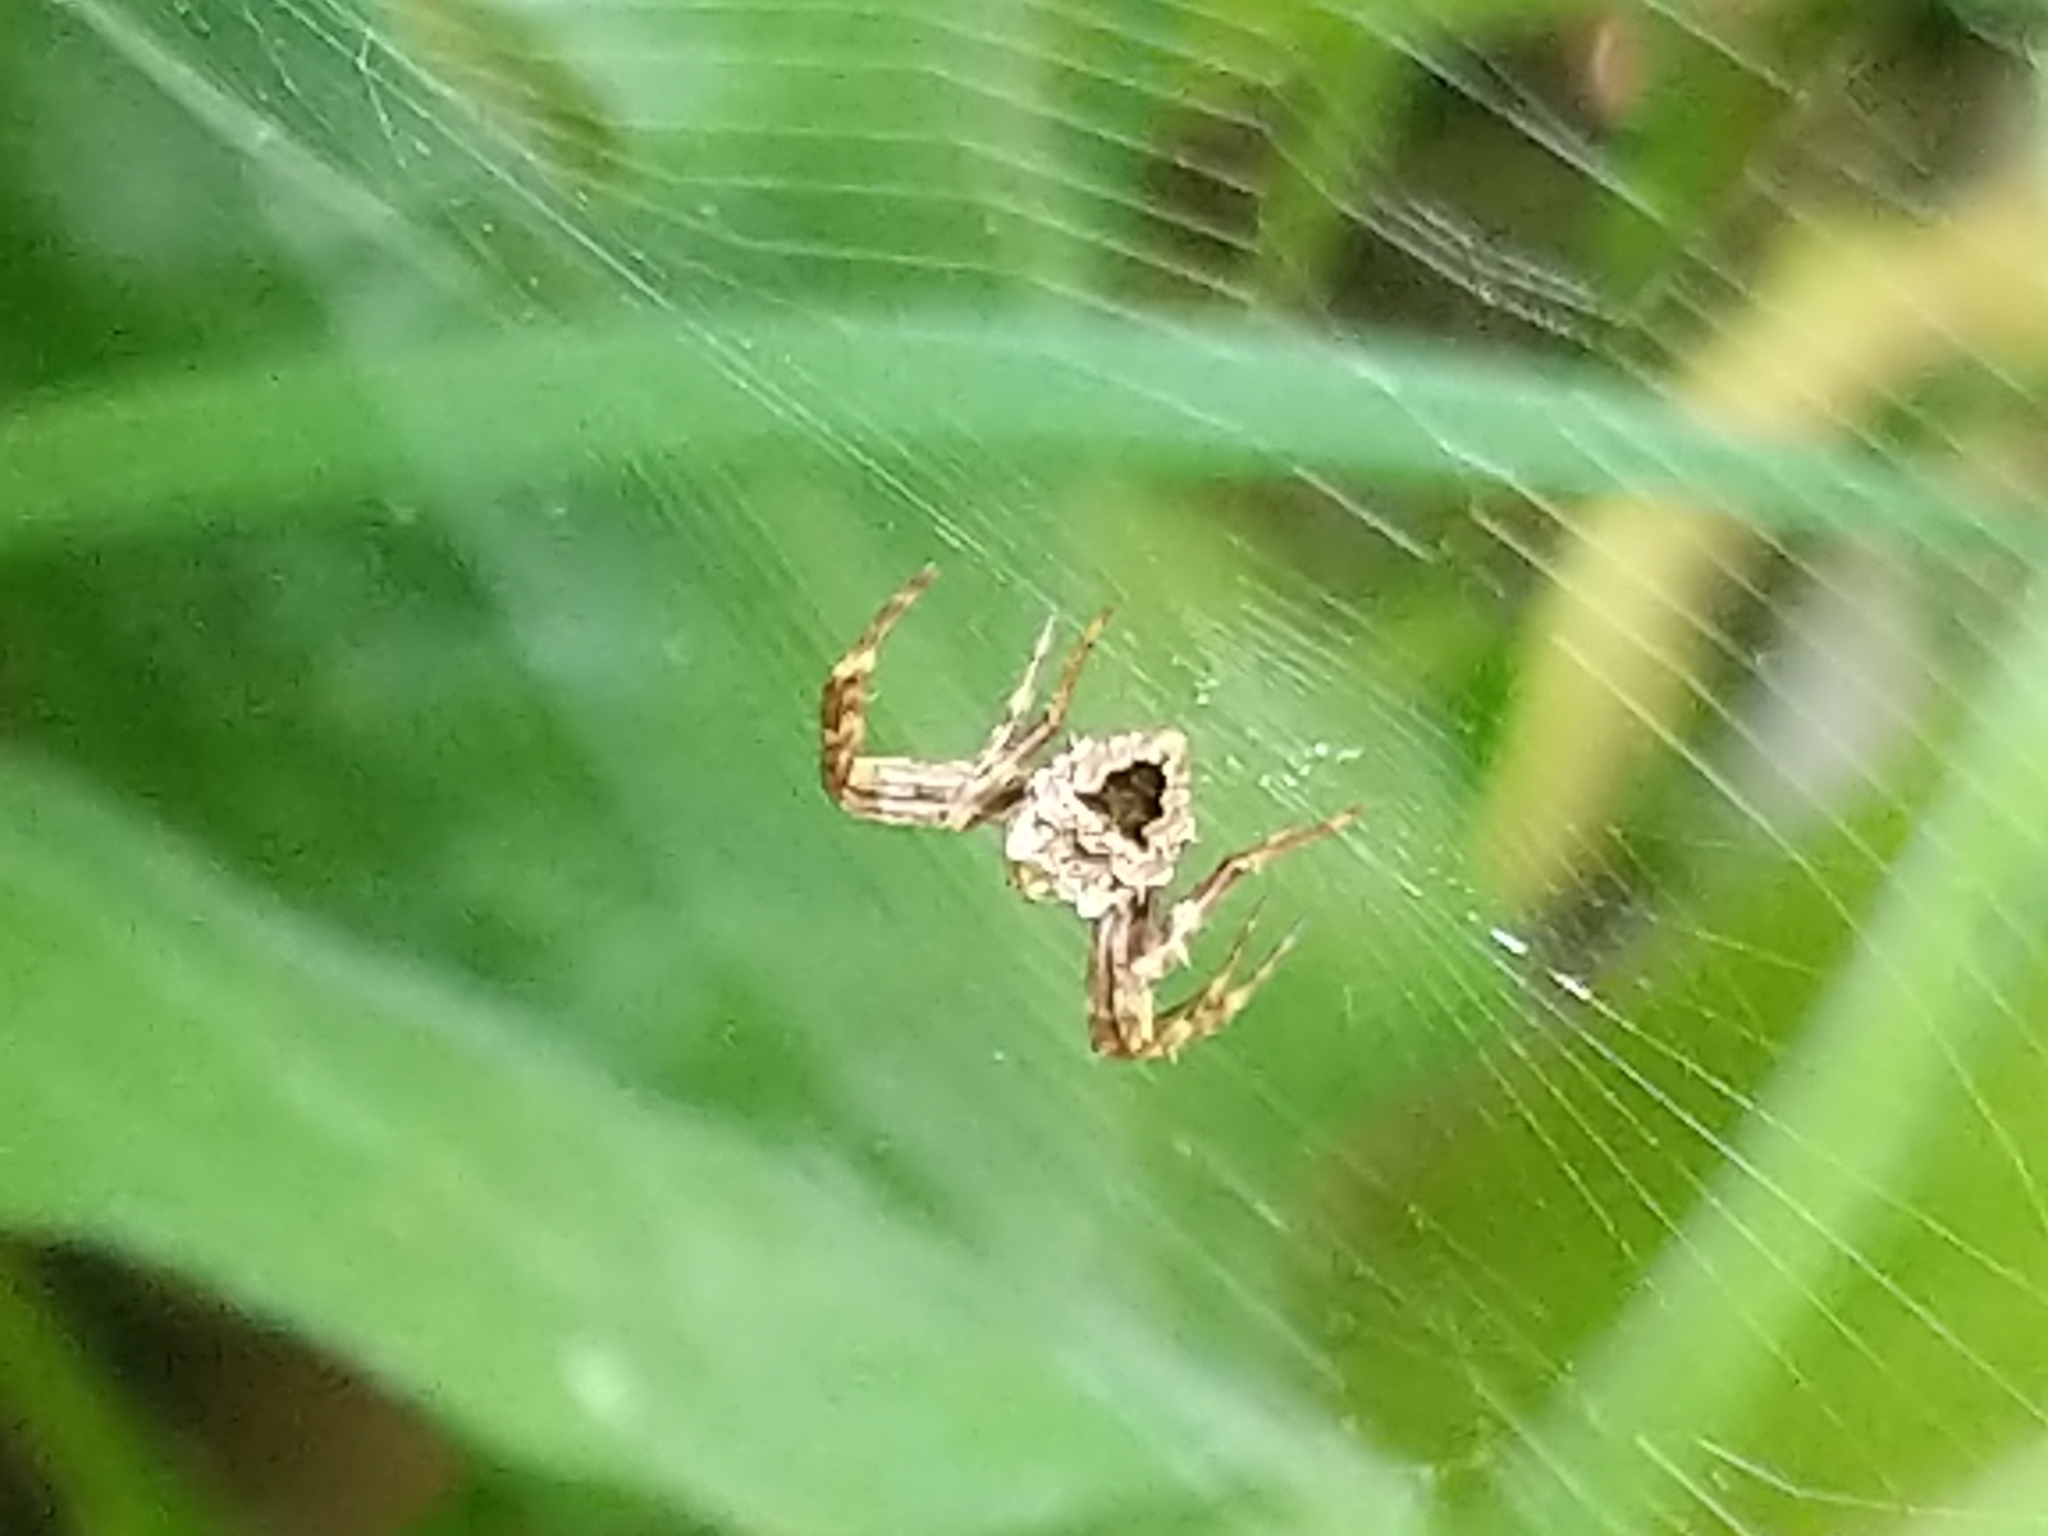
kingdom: Animalia
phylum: Arthropoda
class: Arachnida
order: Araneae
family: Araneidae
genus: Gea
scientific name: Gea heptagon
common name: Orb weavers
